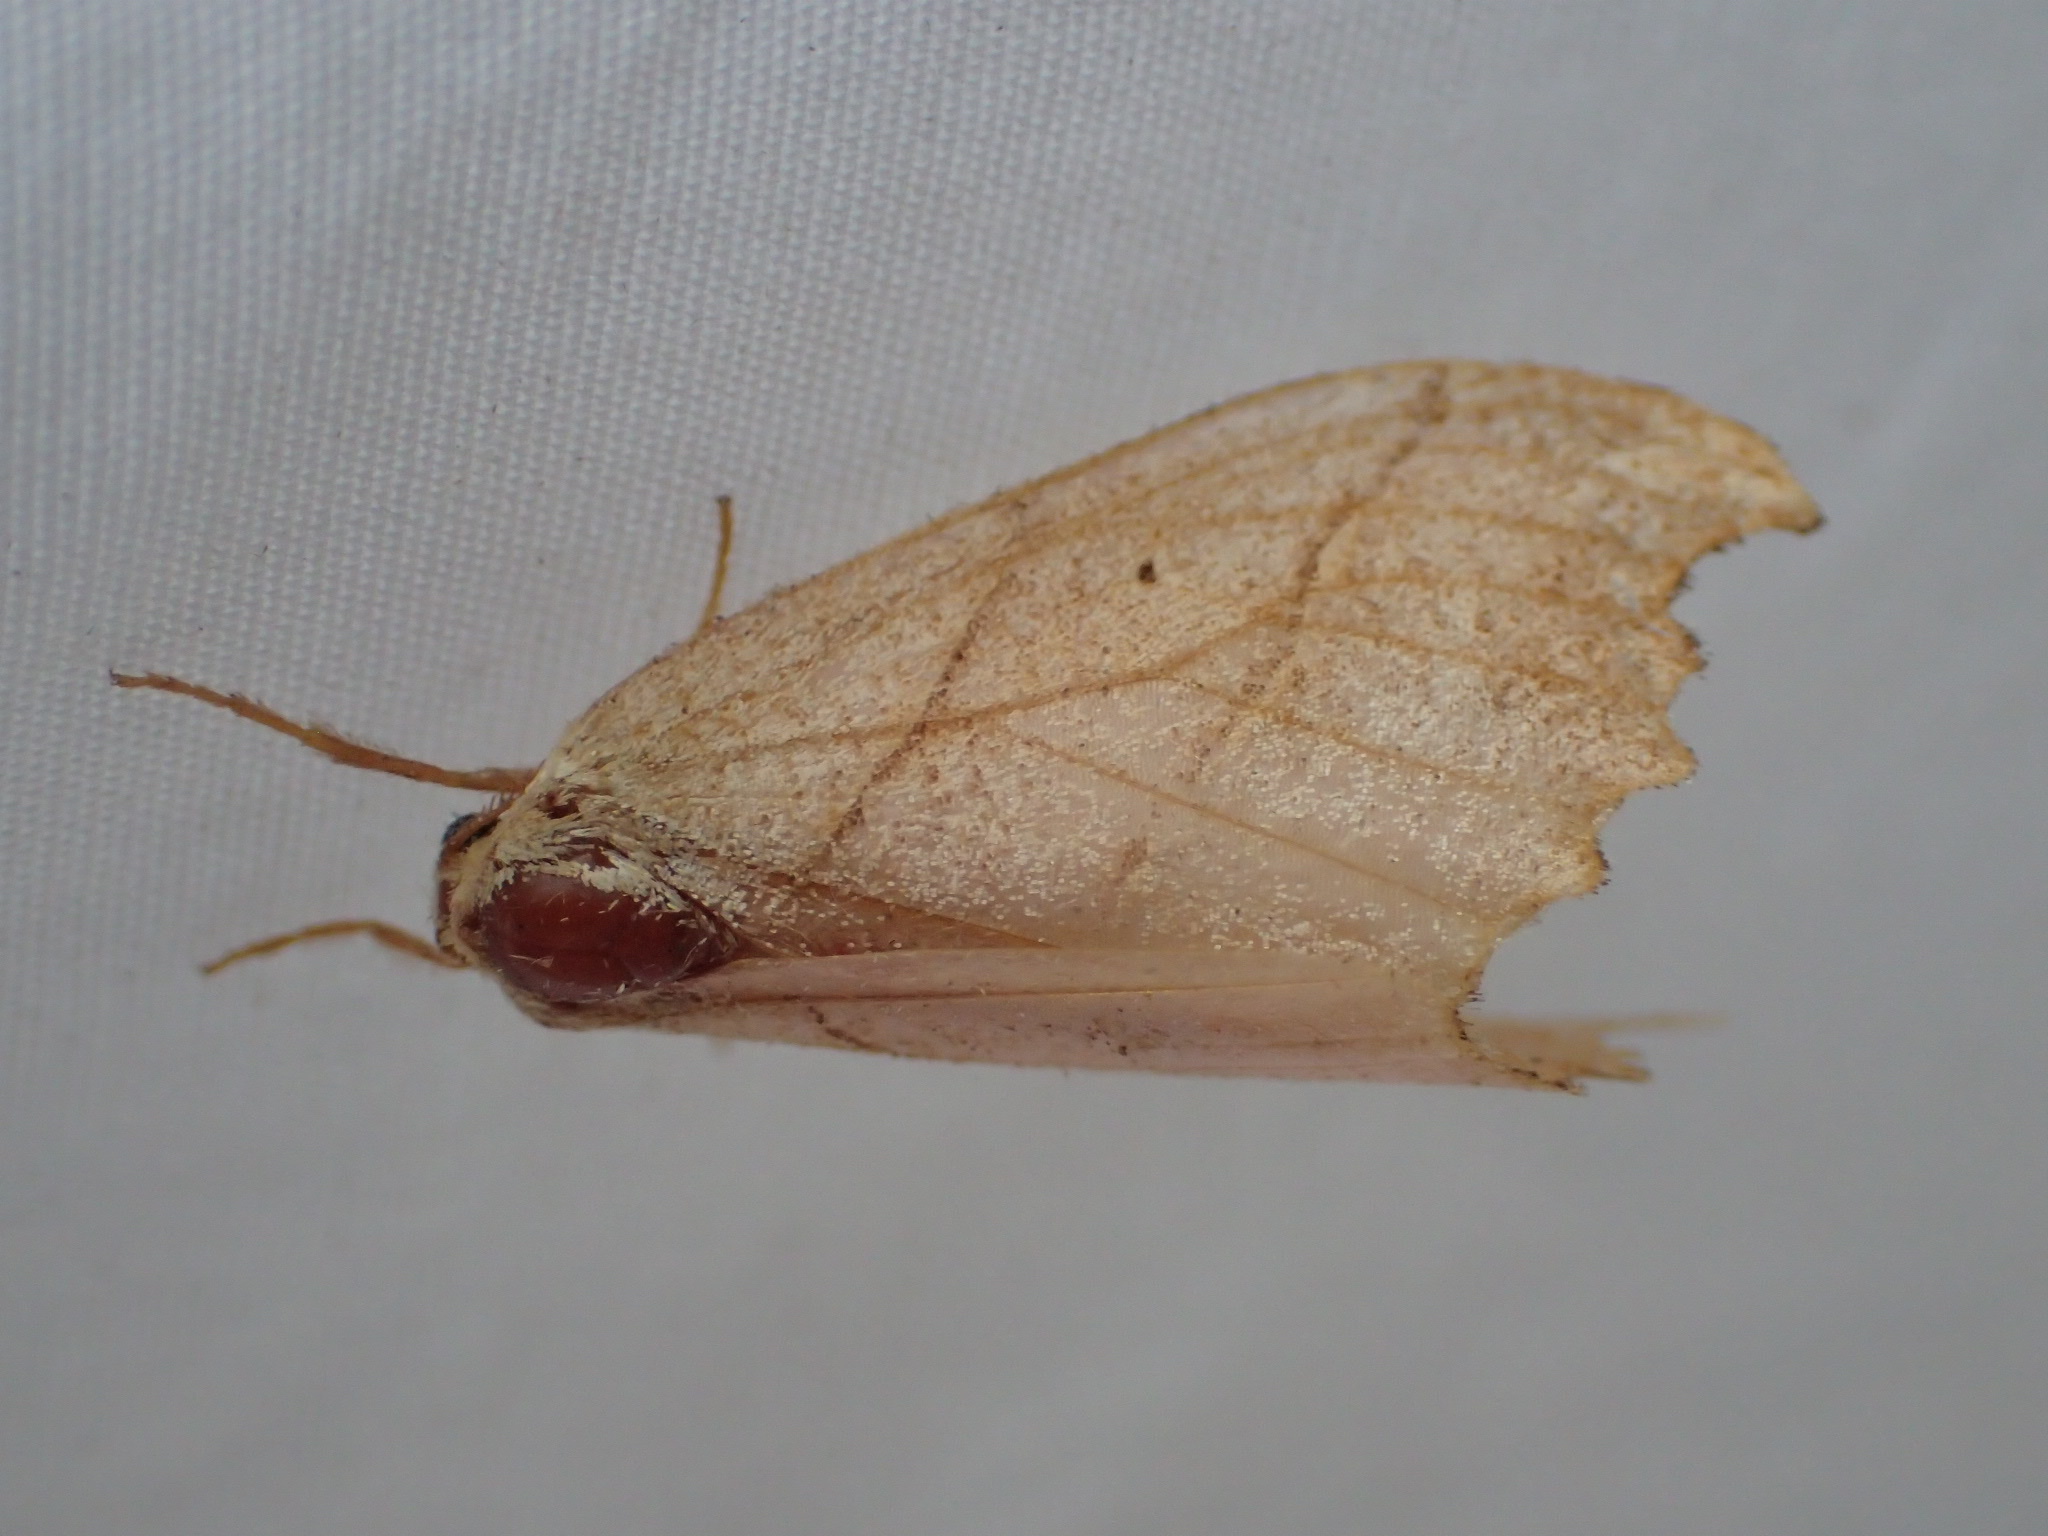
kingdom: Animalia
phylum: Arthropoda
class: Insecta
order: Lepidoptera
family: Drepanidae
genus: Falcaria
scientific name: Falcaria bilineata
